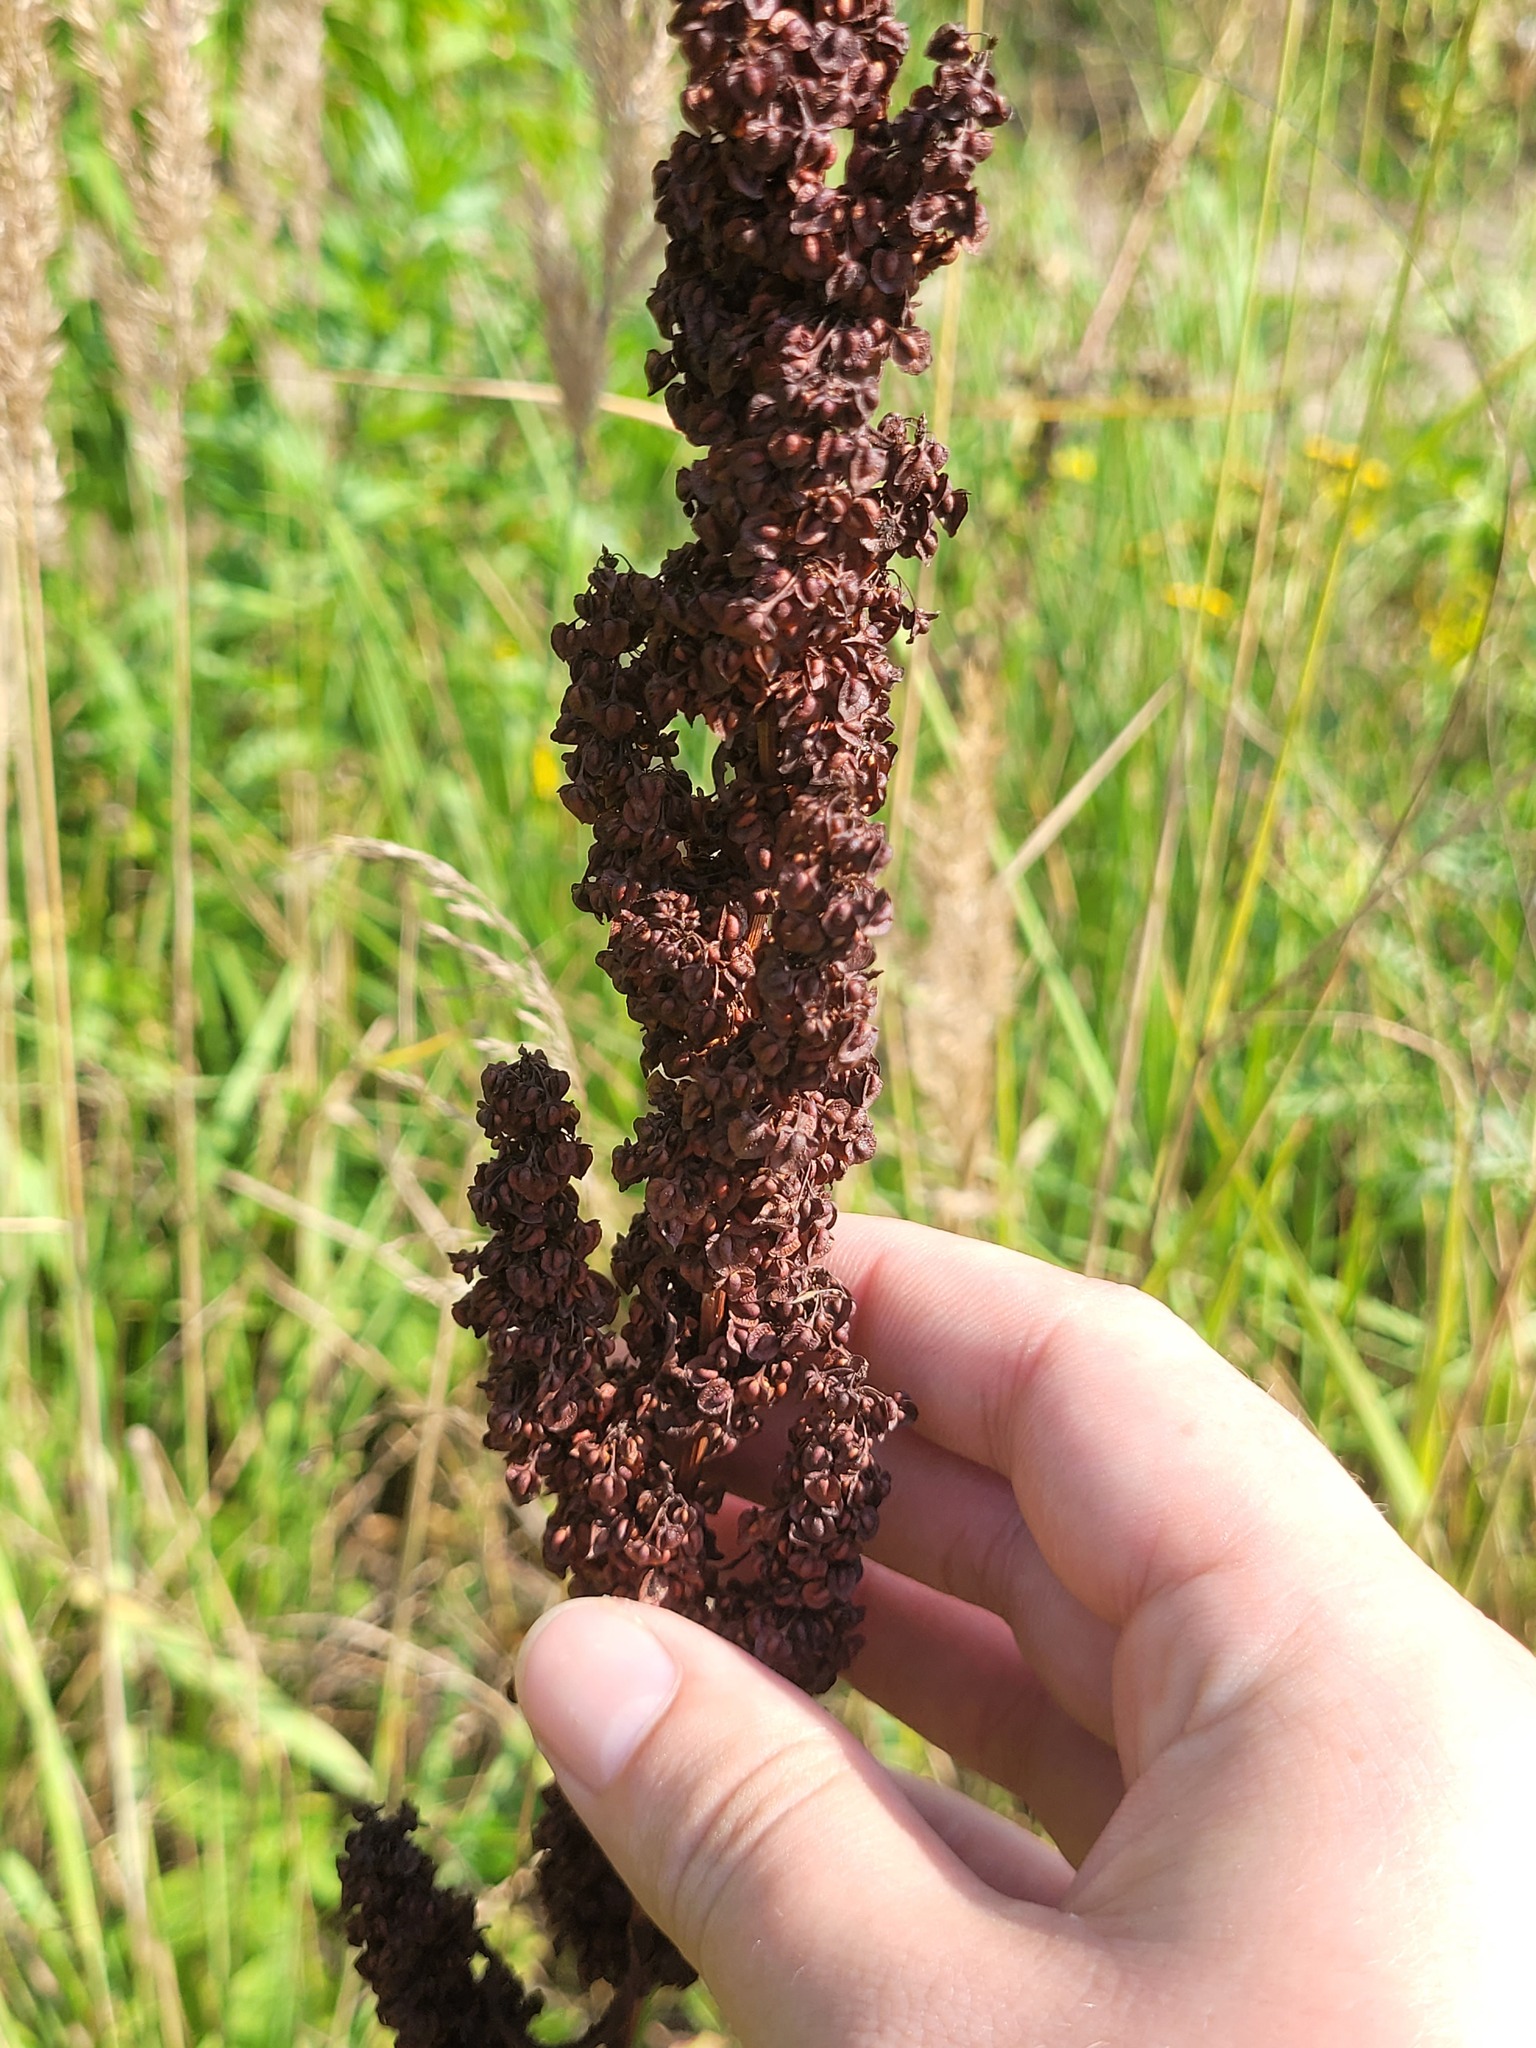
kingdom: Plantae
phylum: Tracheophyta
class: Magnoliopsida
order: Caryophyllales
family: Polygonaceae
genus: Rumex
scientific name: Rumex crispus
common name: Curled dock
